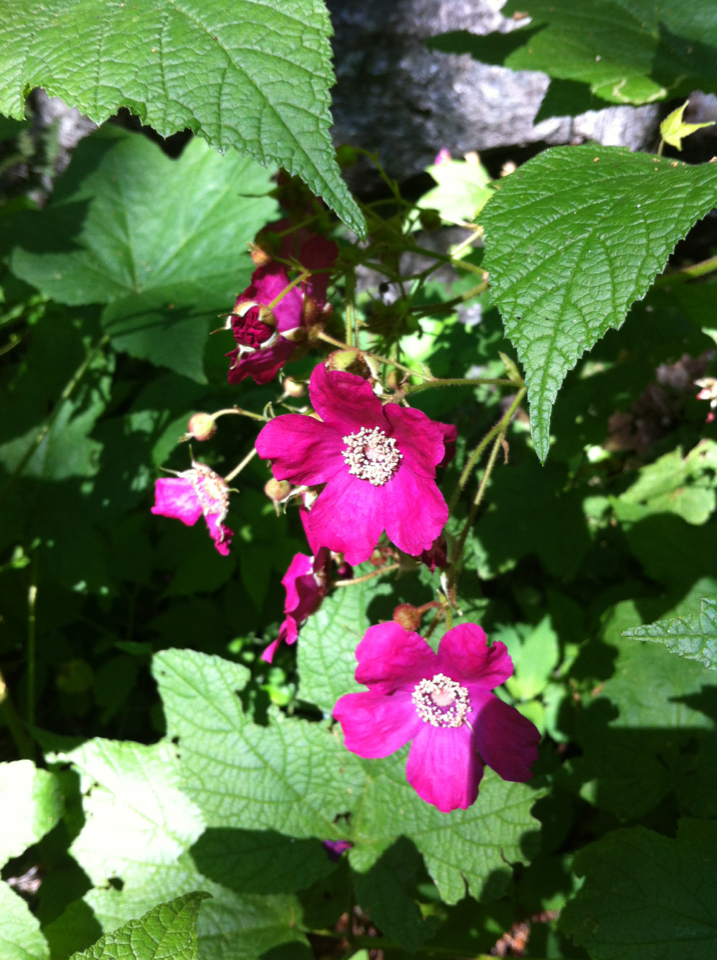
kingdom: Plantae
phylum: Tracheophyta
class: Magnoliopsida
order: Rosales
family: Rosaceae
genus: Rubus
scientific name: Rubus odoratus
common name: Purple-flowered raspberry
